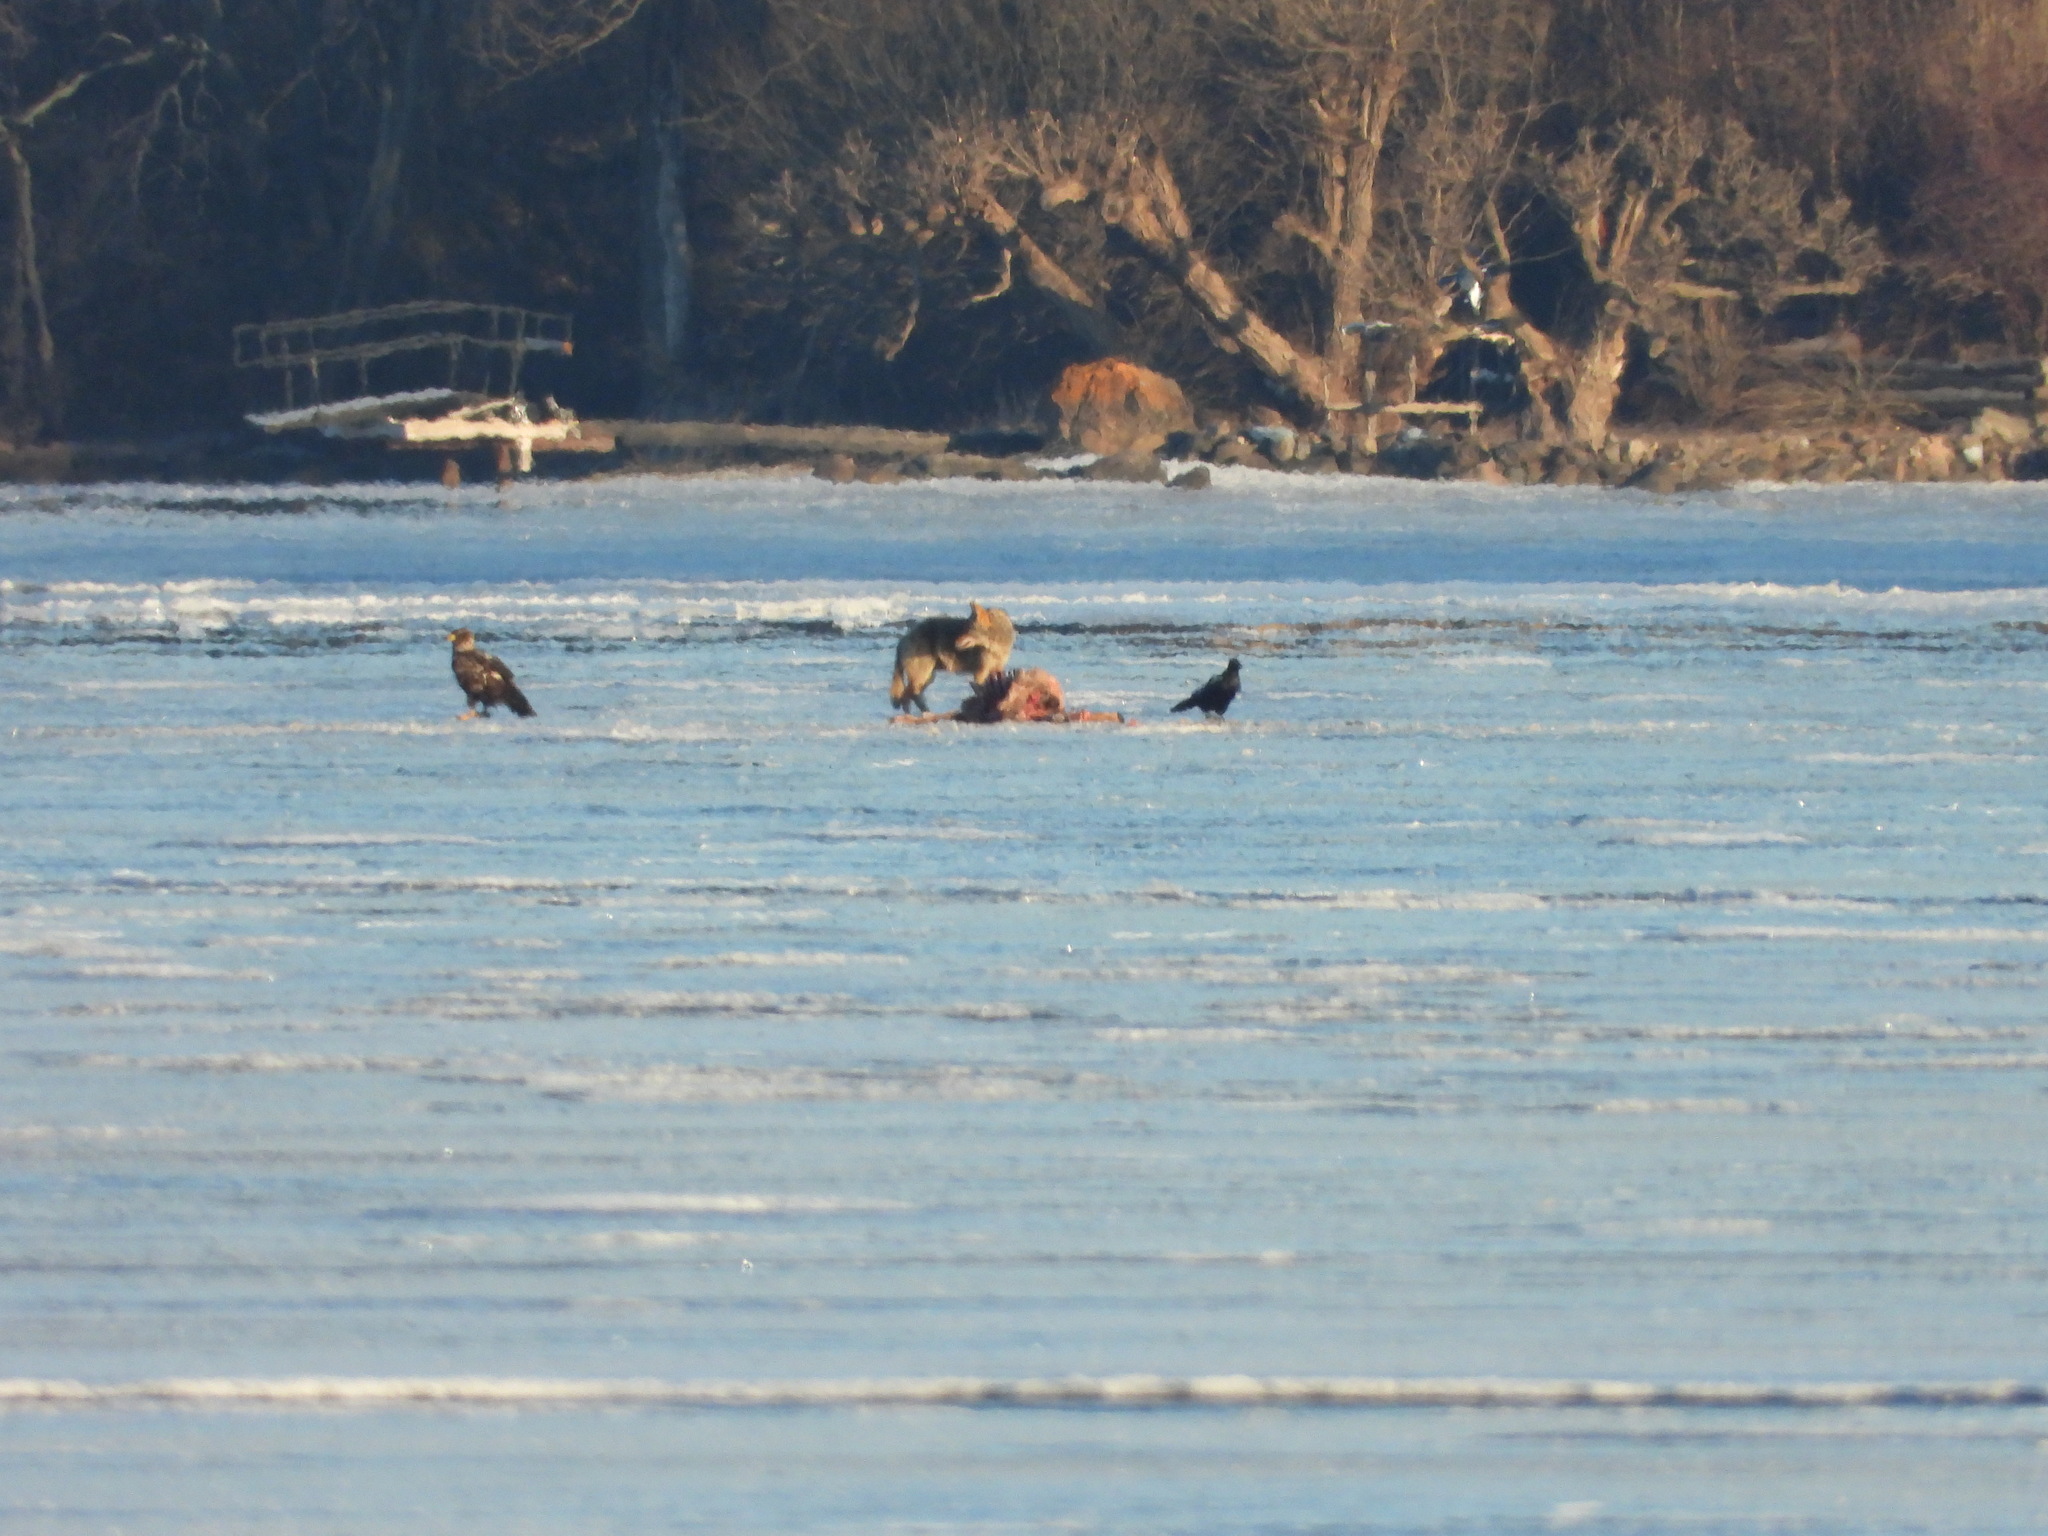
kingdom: Animalia
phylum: Chordata
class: Mammalia
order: Carnivora
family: Canidae
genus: Canis
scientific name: Canis latrans
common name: Coyote
